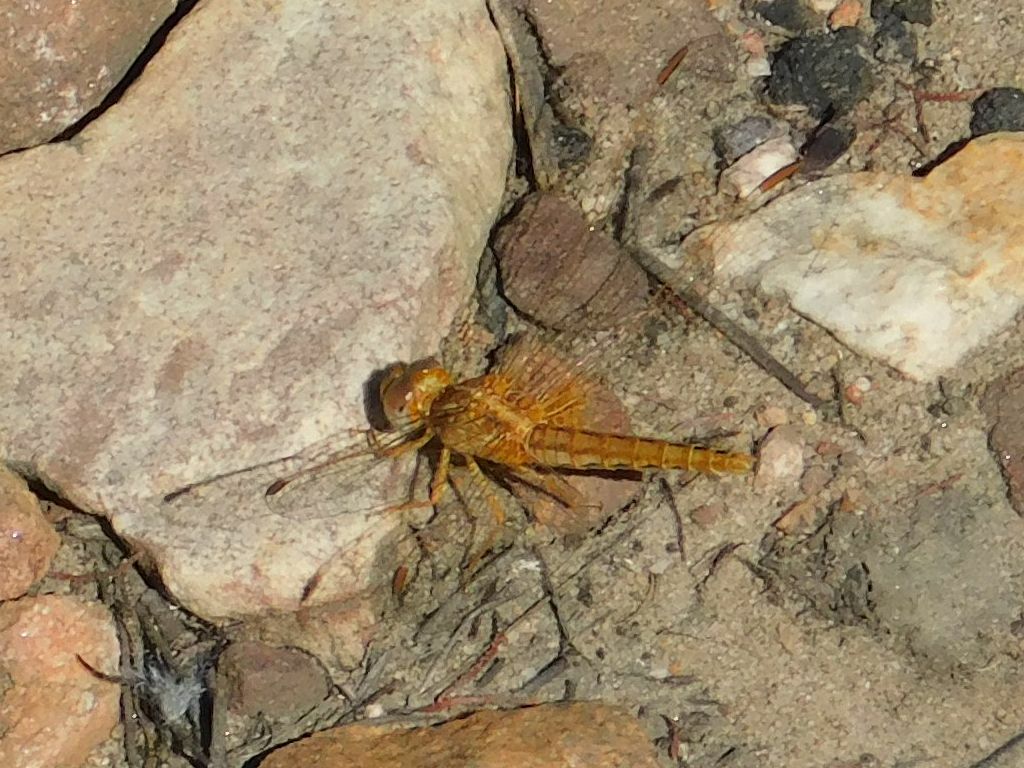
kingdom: Animalia
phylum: Arthropoda
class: Insecta
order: Odonata
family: Libellulidae
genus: Crocothemis
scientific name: Crocothemis sanguinolenta
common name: Little scarlet
